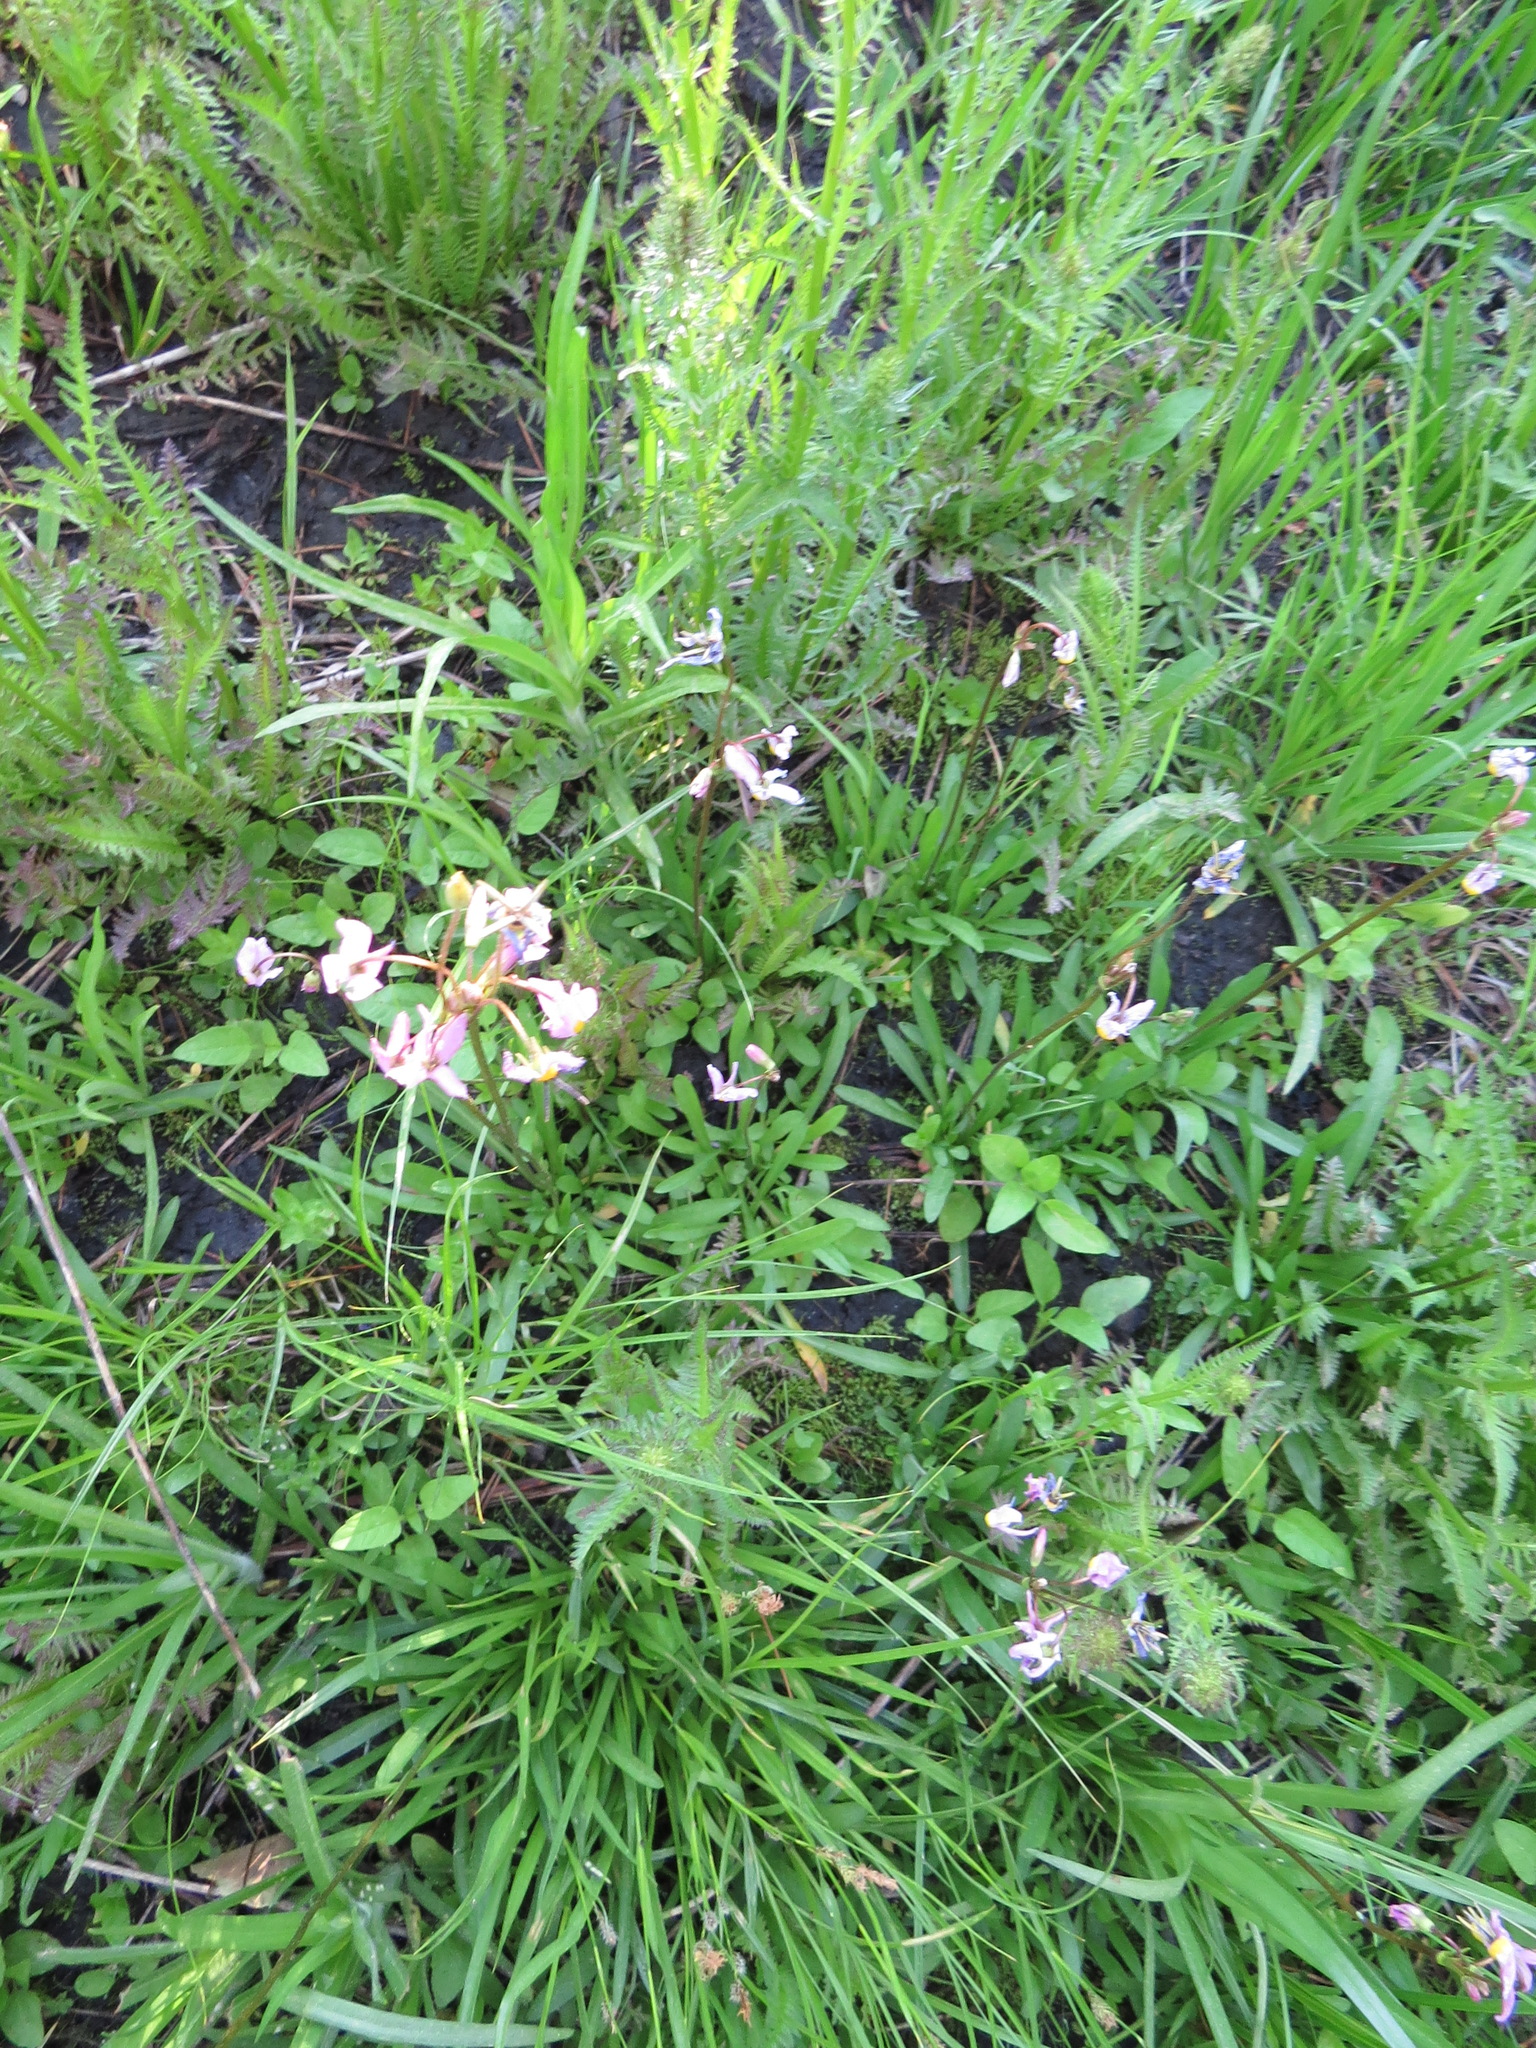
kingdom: Plantae
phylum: Tracheophyta
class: Magnoliopsida
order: Ericales
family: Primulaceae
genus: Dodecatheon
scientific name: Dodecatheon jeffreyanum
